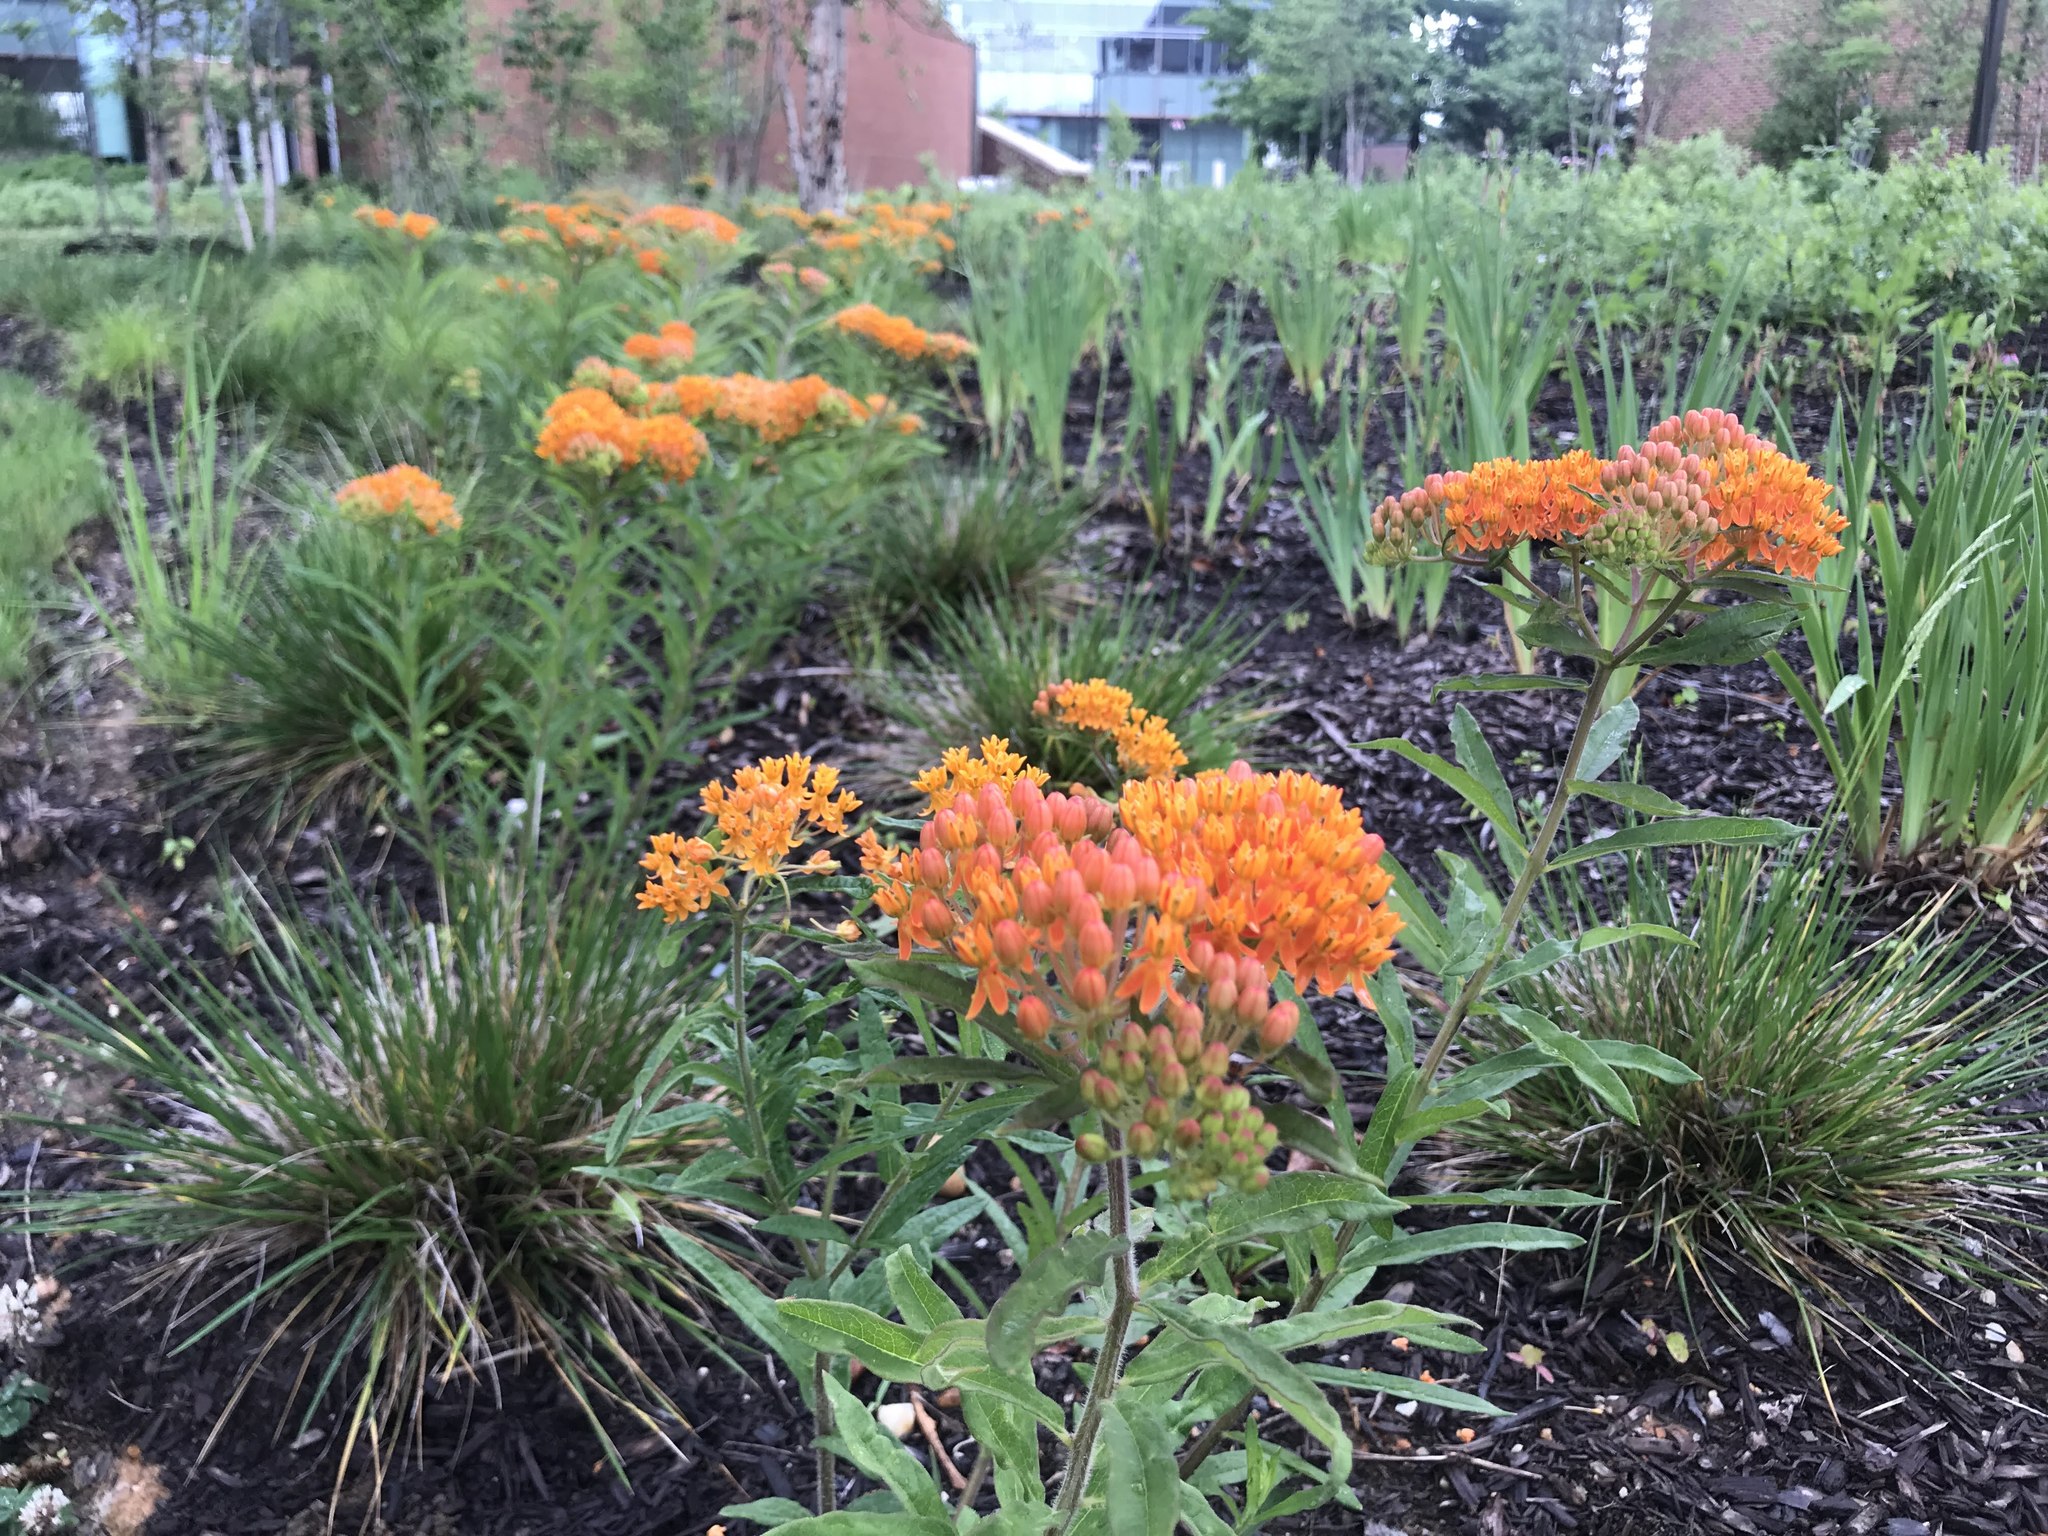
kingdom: Plantae
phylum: Tracheophyta
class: Magnoliopsida
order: Gentianales
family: Apocynaceae
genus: Asclepias
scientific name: Asclepias tuberosa
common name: Butterfly milkweed
